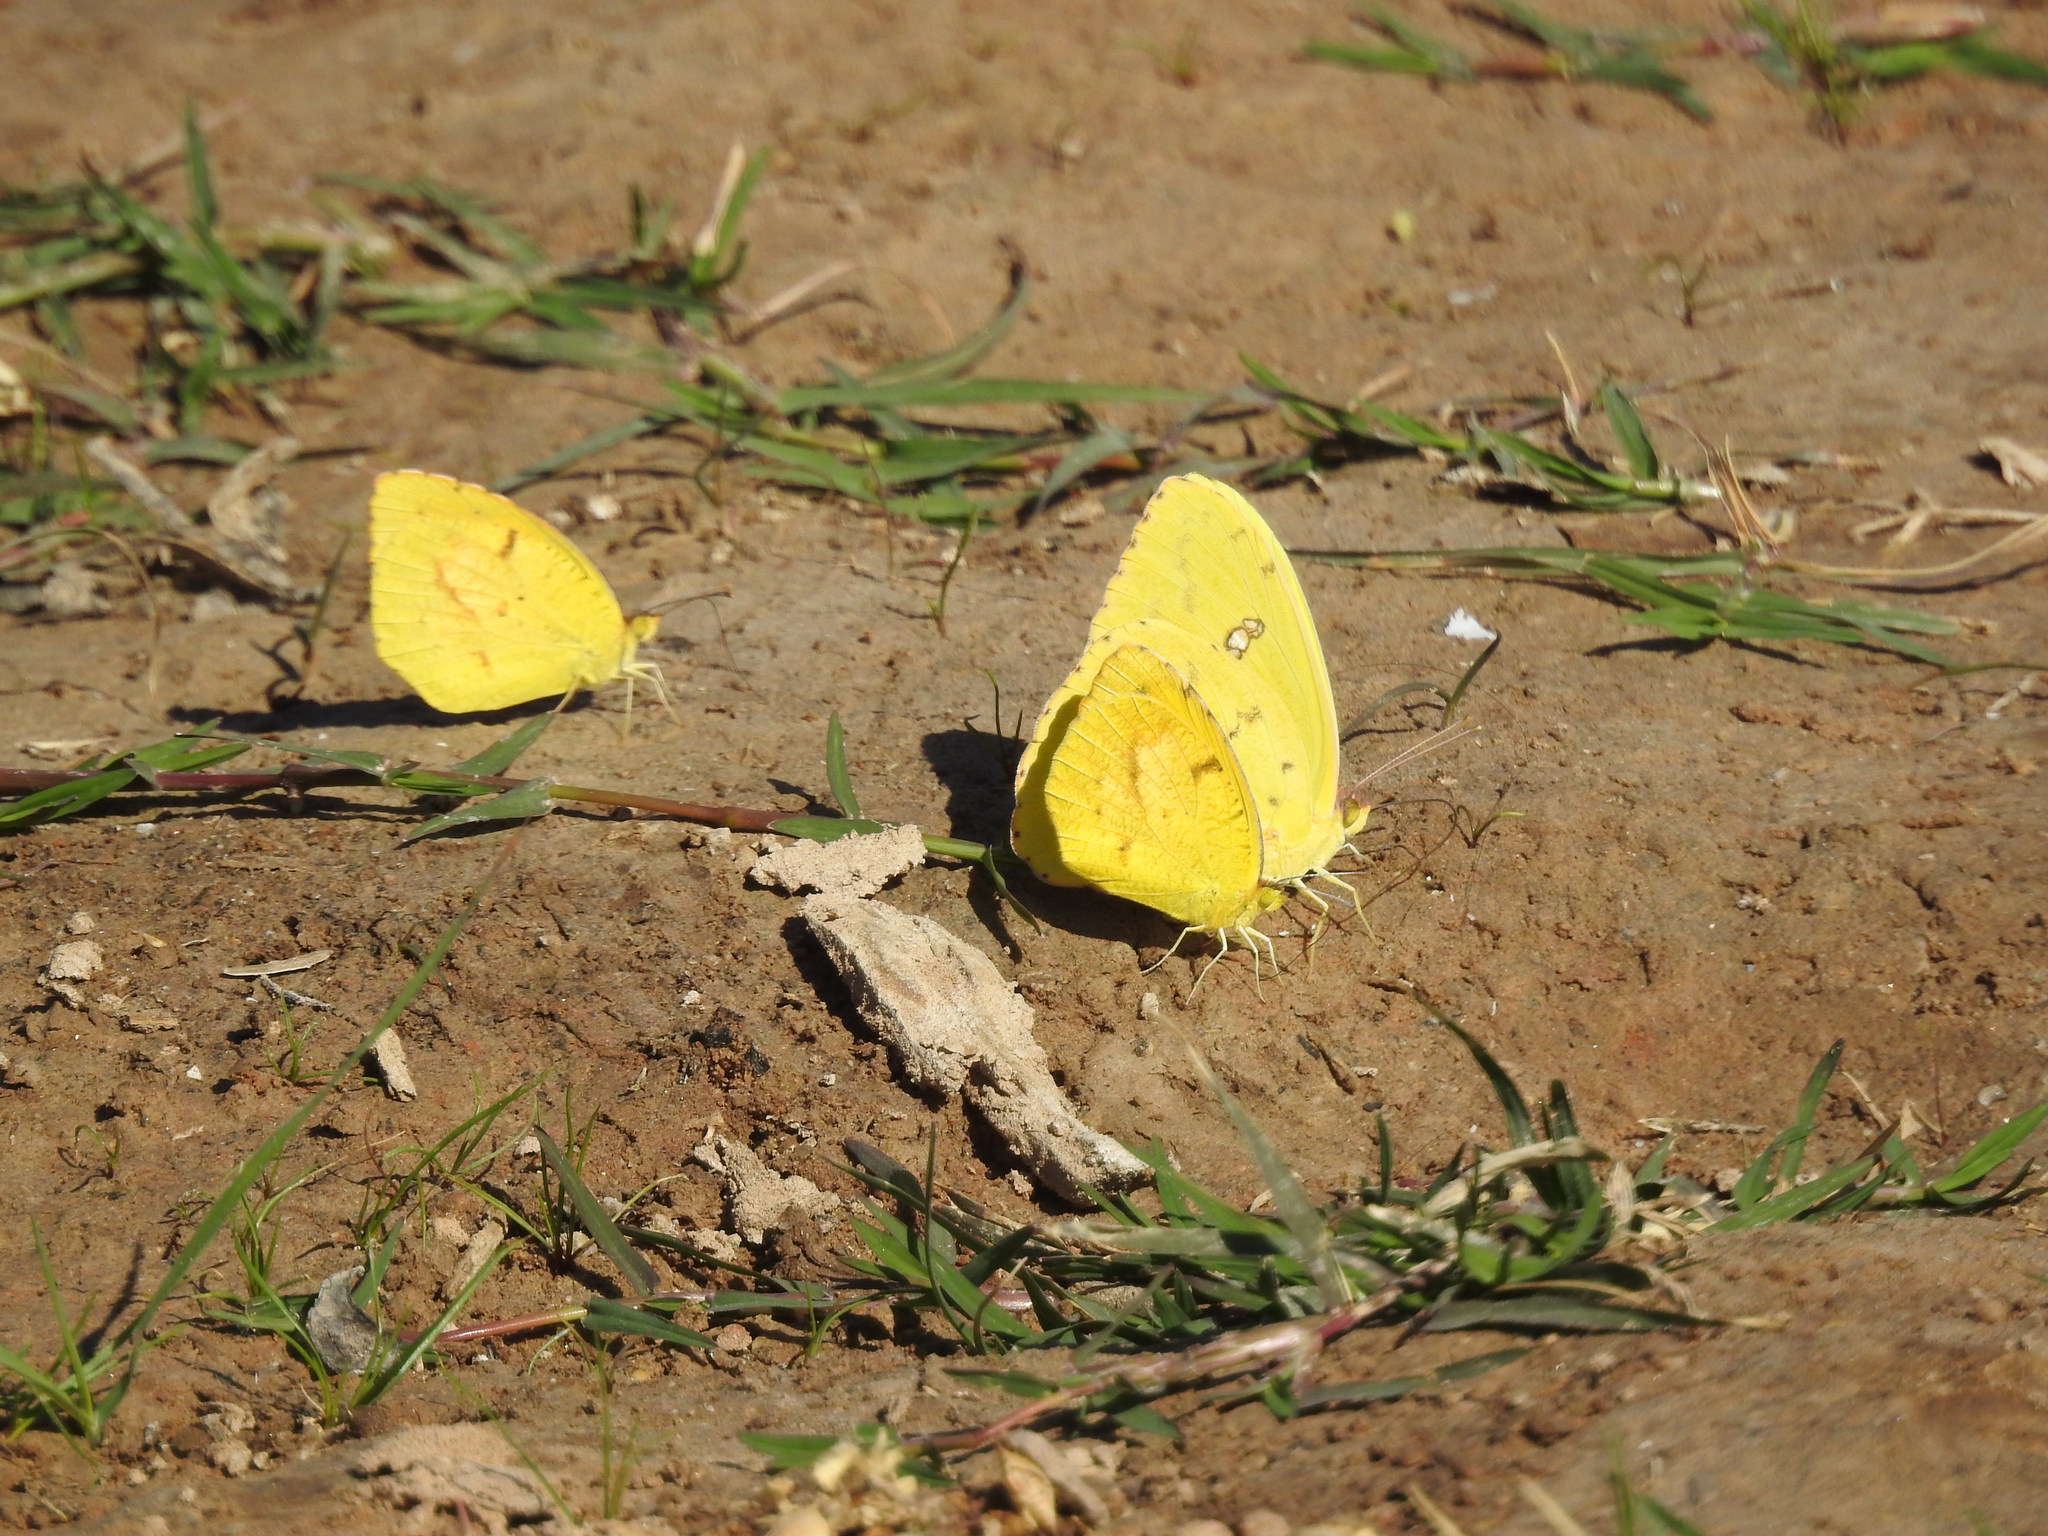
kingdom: Animalia
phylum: Arthropoda
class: Insecta
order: Lepidoptera
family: Pieridae
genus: Abaeis
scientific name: Abaeis nicippe
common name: Sleepy orange
